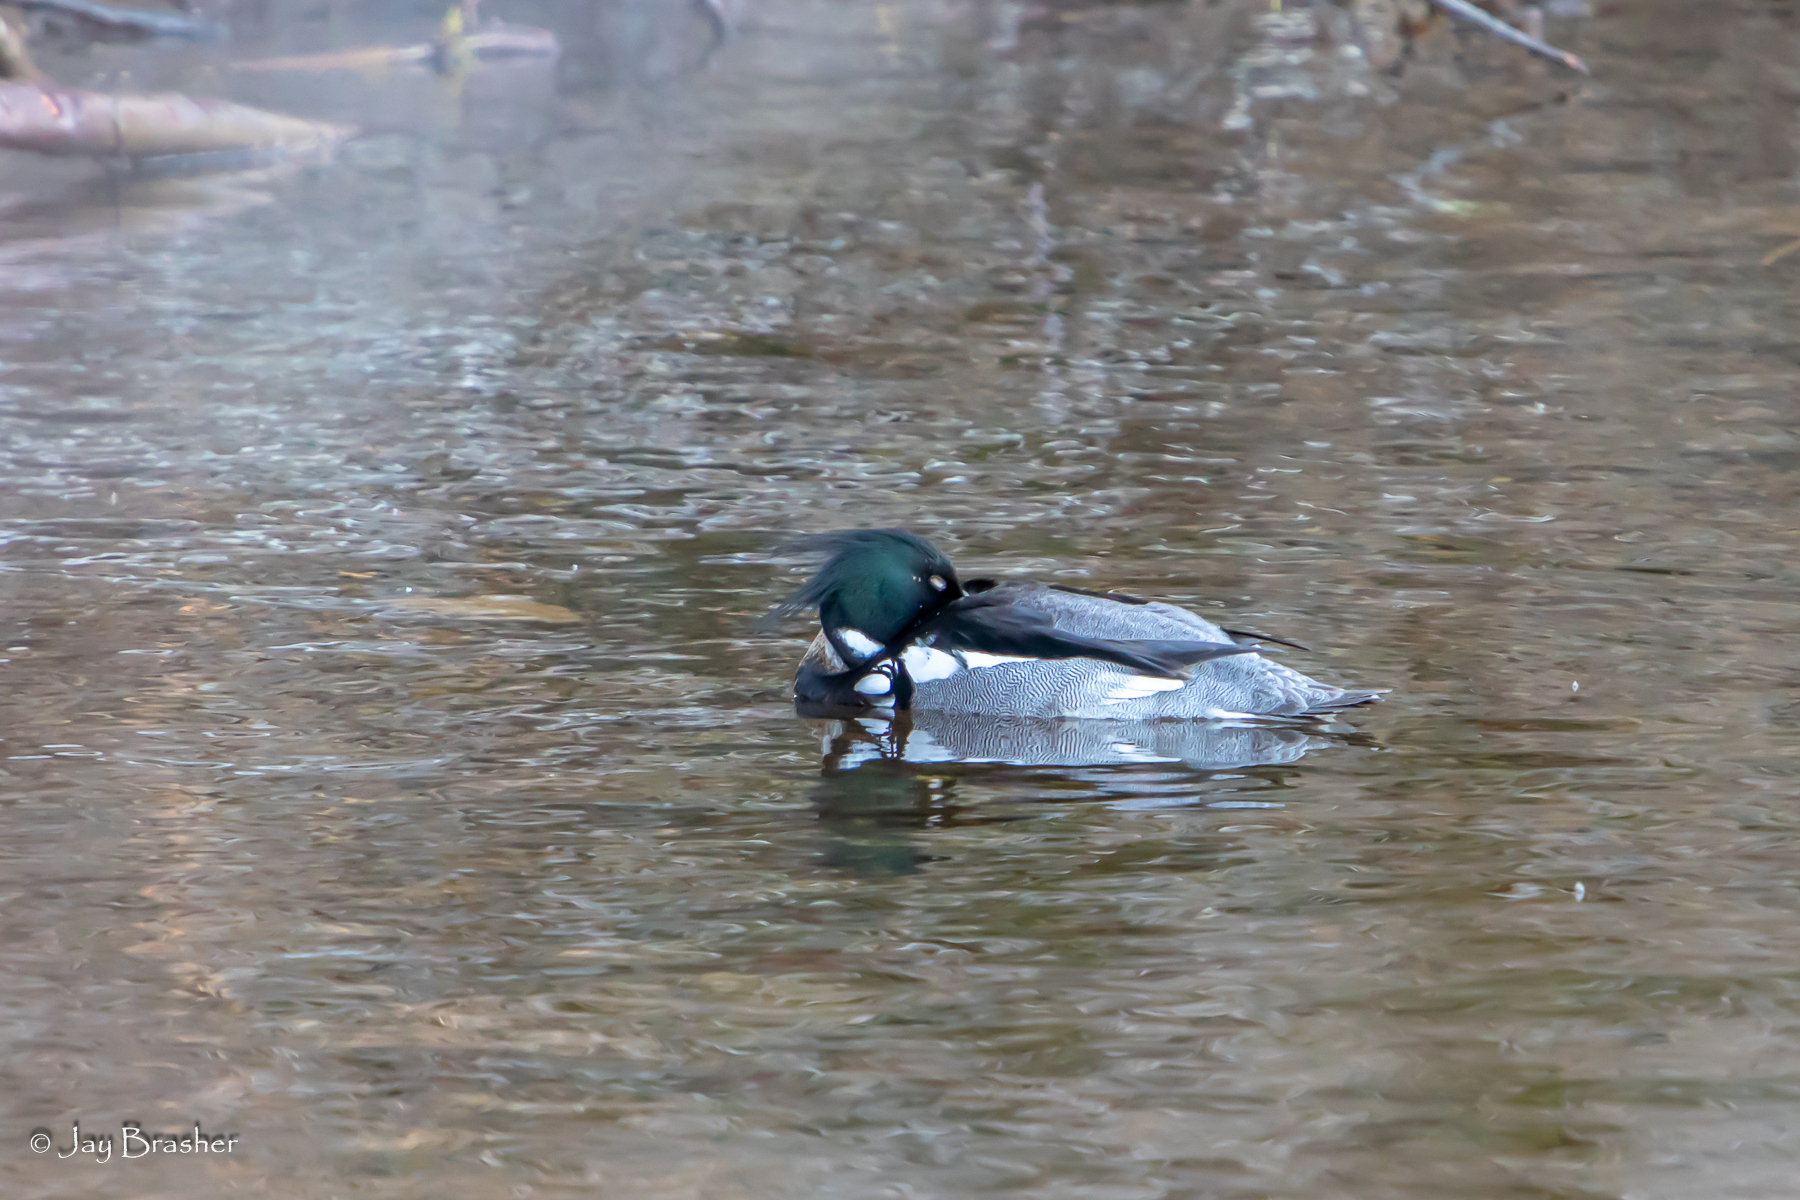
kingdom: Animalia
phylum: Chordata
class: Aves
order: Anseriformes
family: Anatidae
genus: Mergus
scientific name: Mergus serrator
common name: Red-breasted merganser
